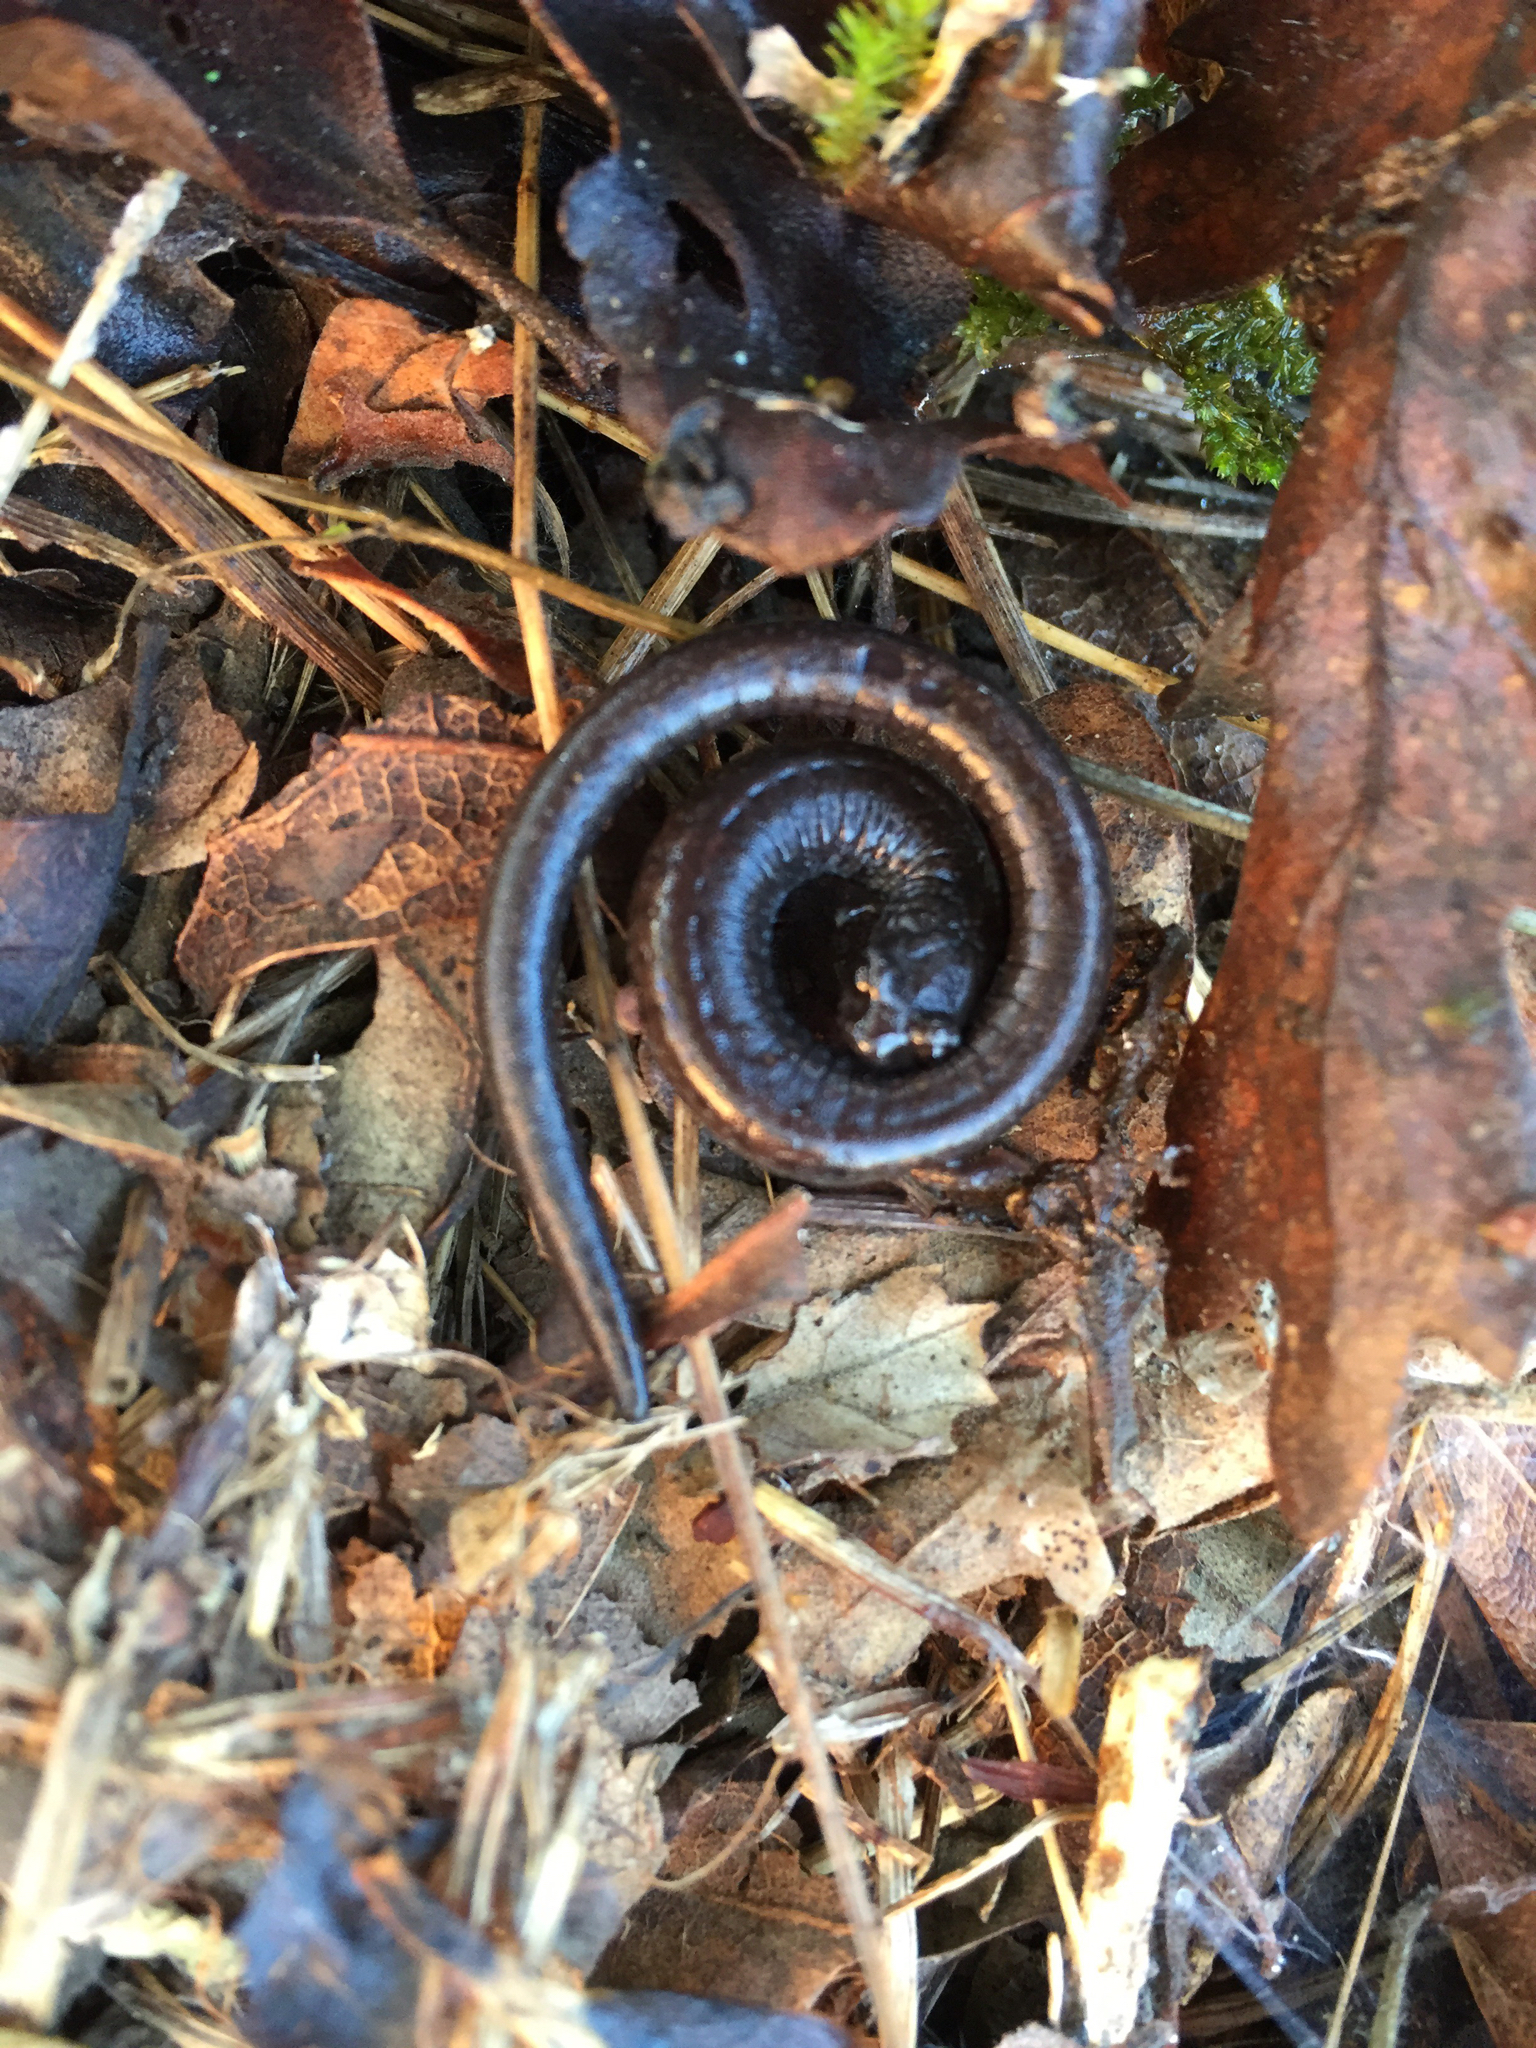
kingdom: Animalia
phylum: Chordata
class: Amphibia
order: Caudata
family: Plethodontidae
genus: Batrachoseps
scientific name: Batrachoseps attenuatus
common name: California slender salamander
